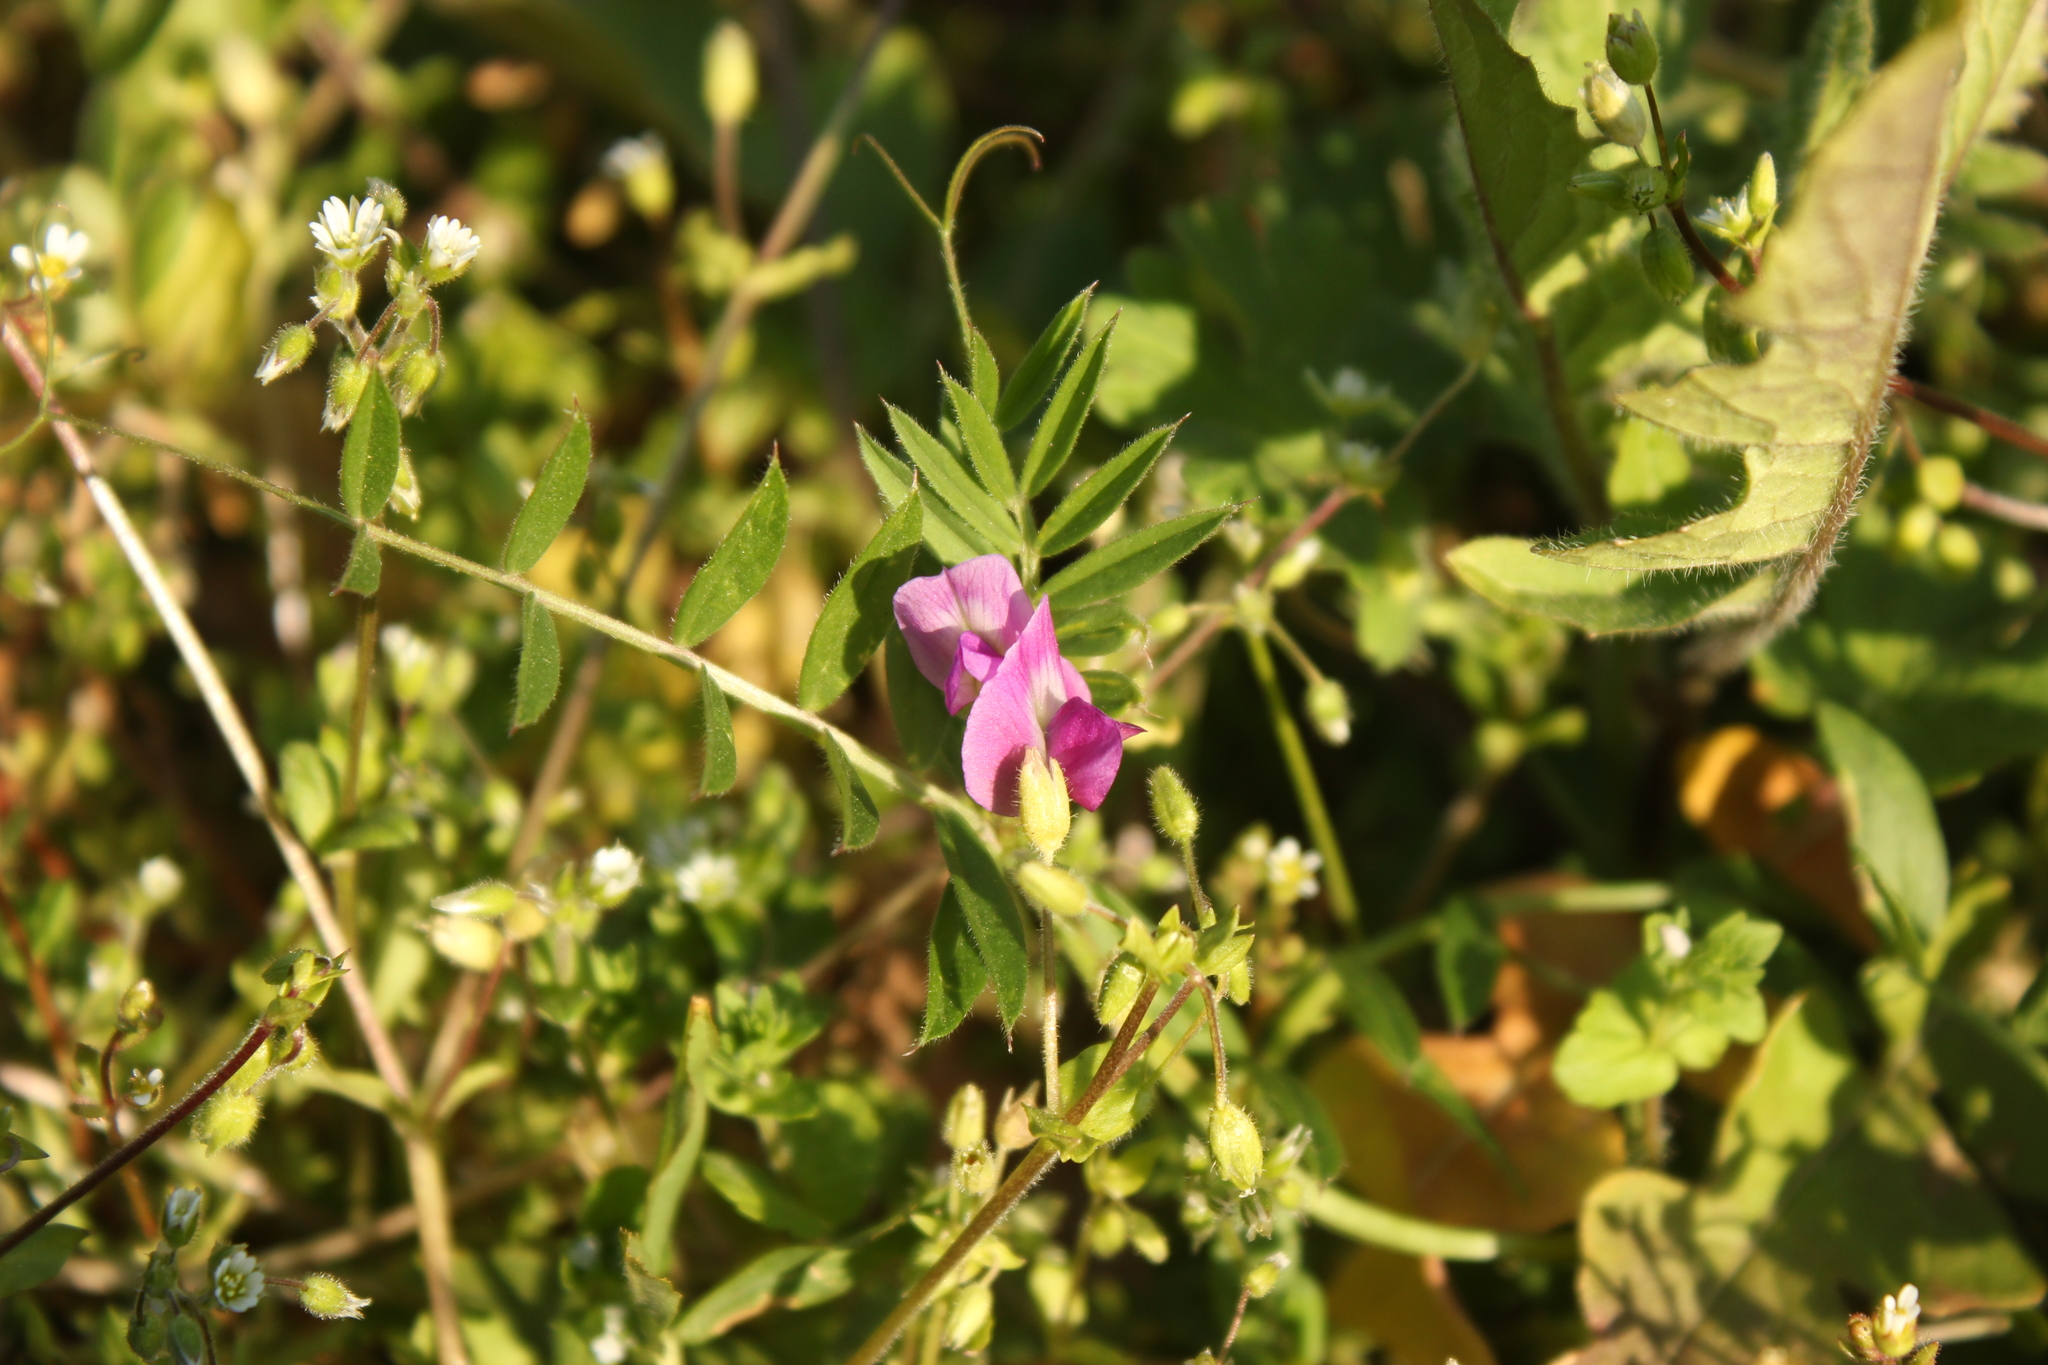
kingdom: Plantae
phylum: Tracheophyta
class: Magnoliopsida
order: Fabales
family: Fabaceae
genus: Vicia
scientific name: Vicia sativa
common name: Garden vetch
